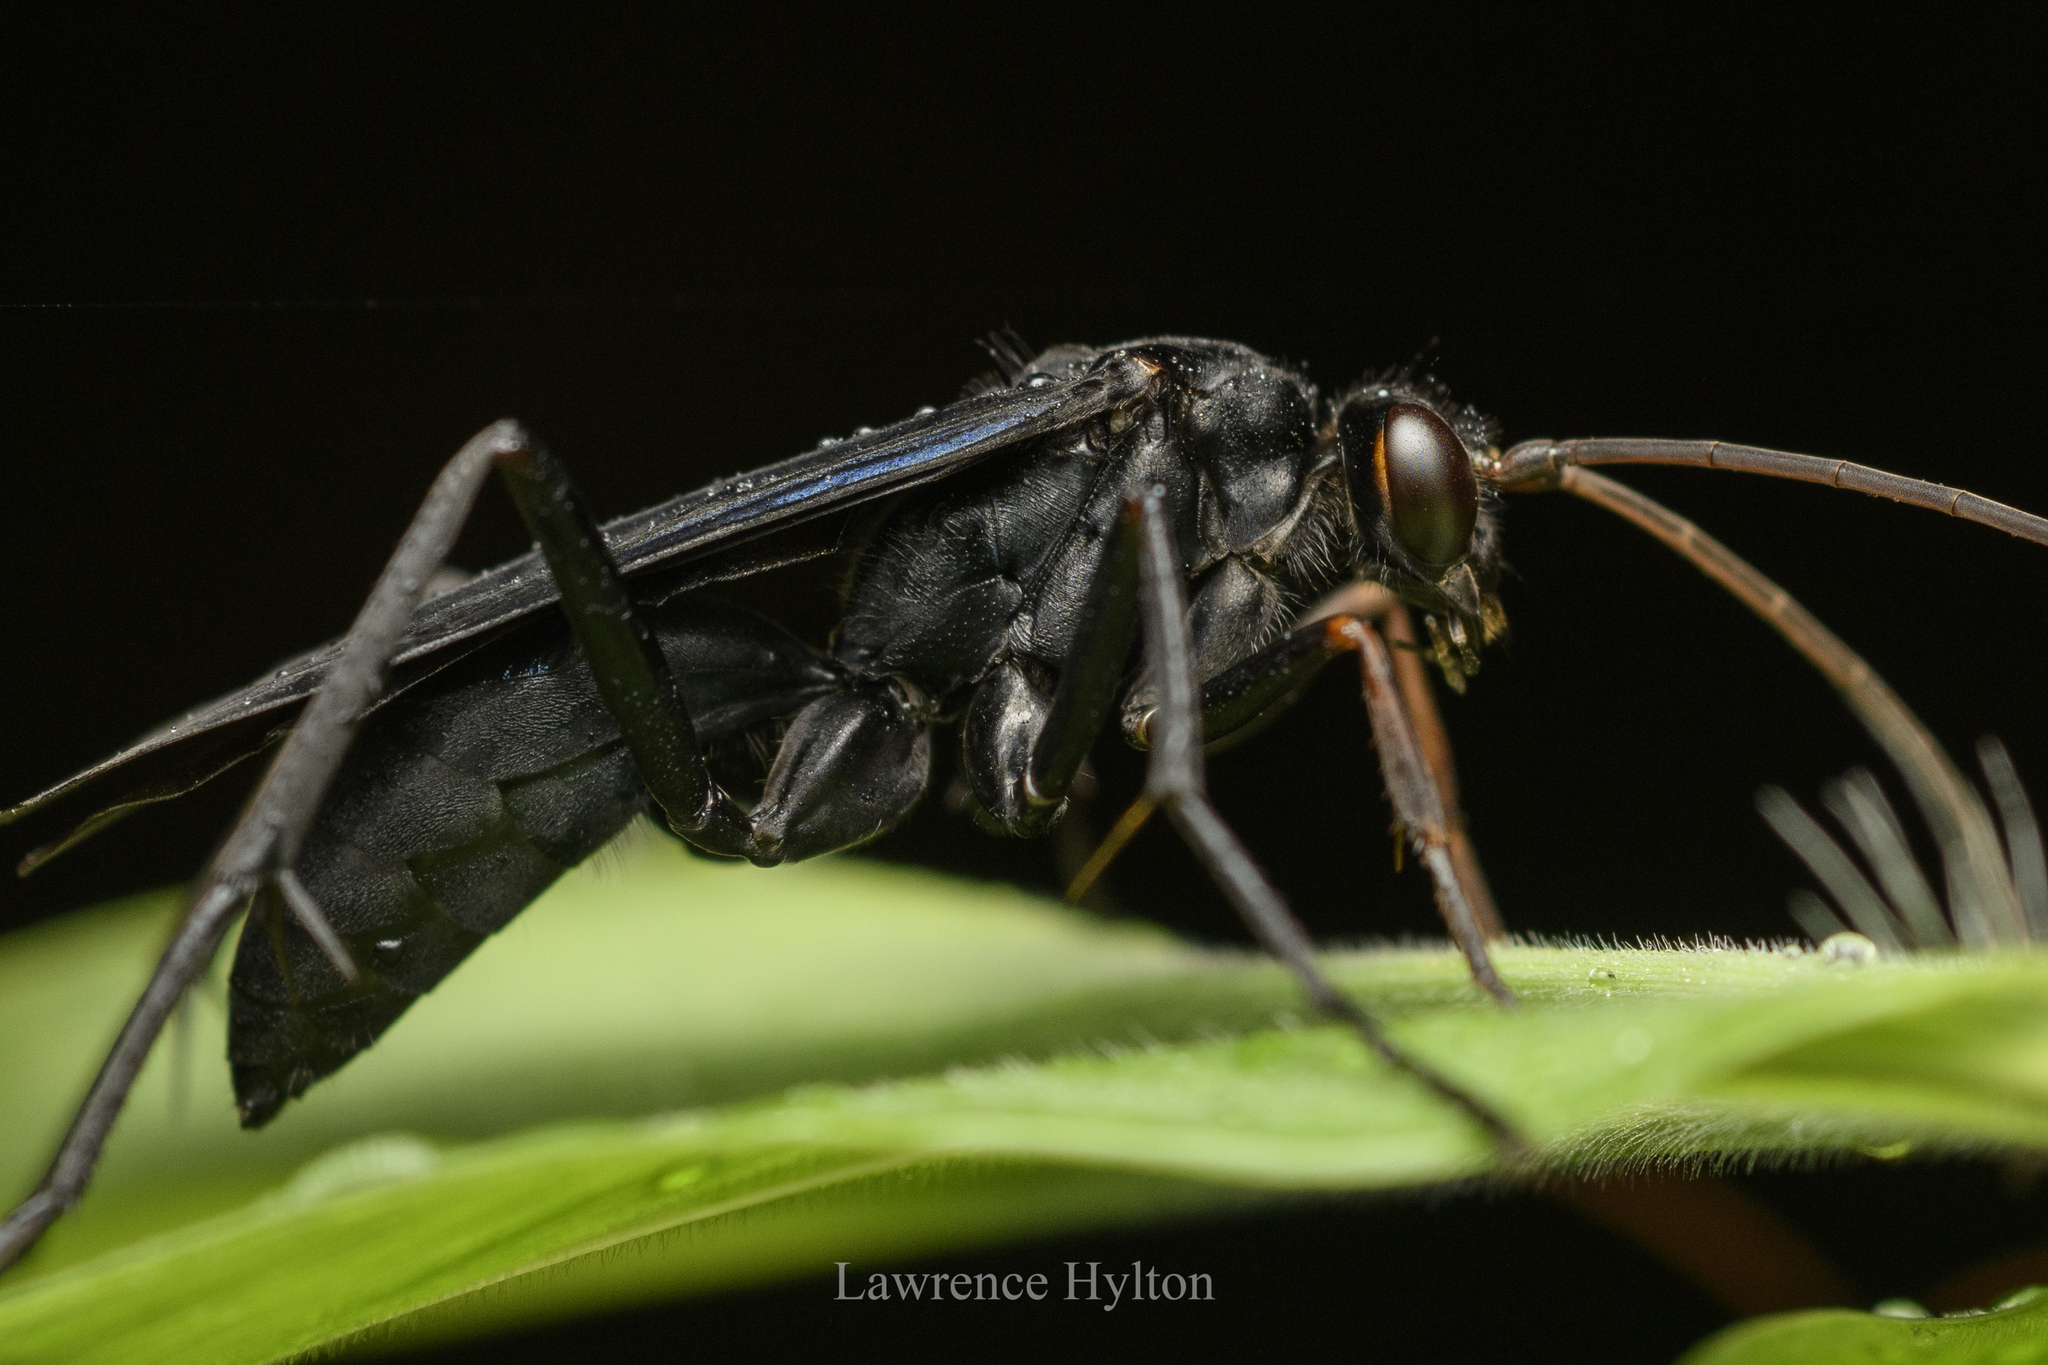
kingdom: Animalia
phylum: Arthropoda
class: Insecta
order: Hymenoptera
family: Pompilidae
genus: Cyphononyx
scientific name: Cyphononyx bipartitus
